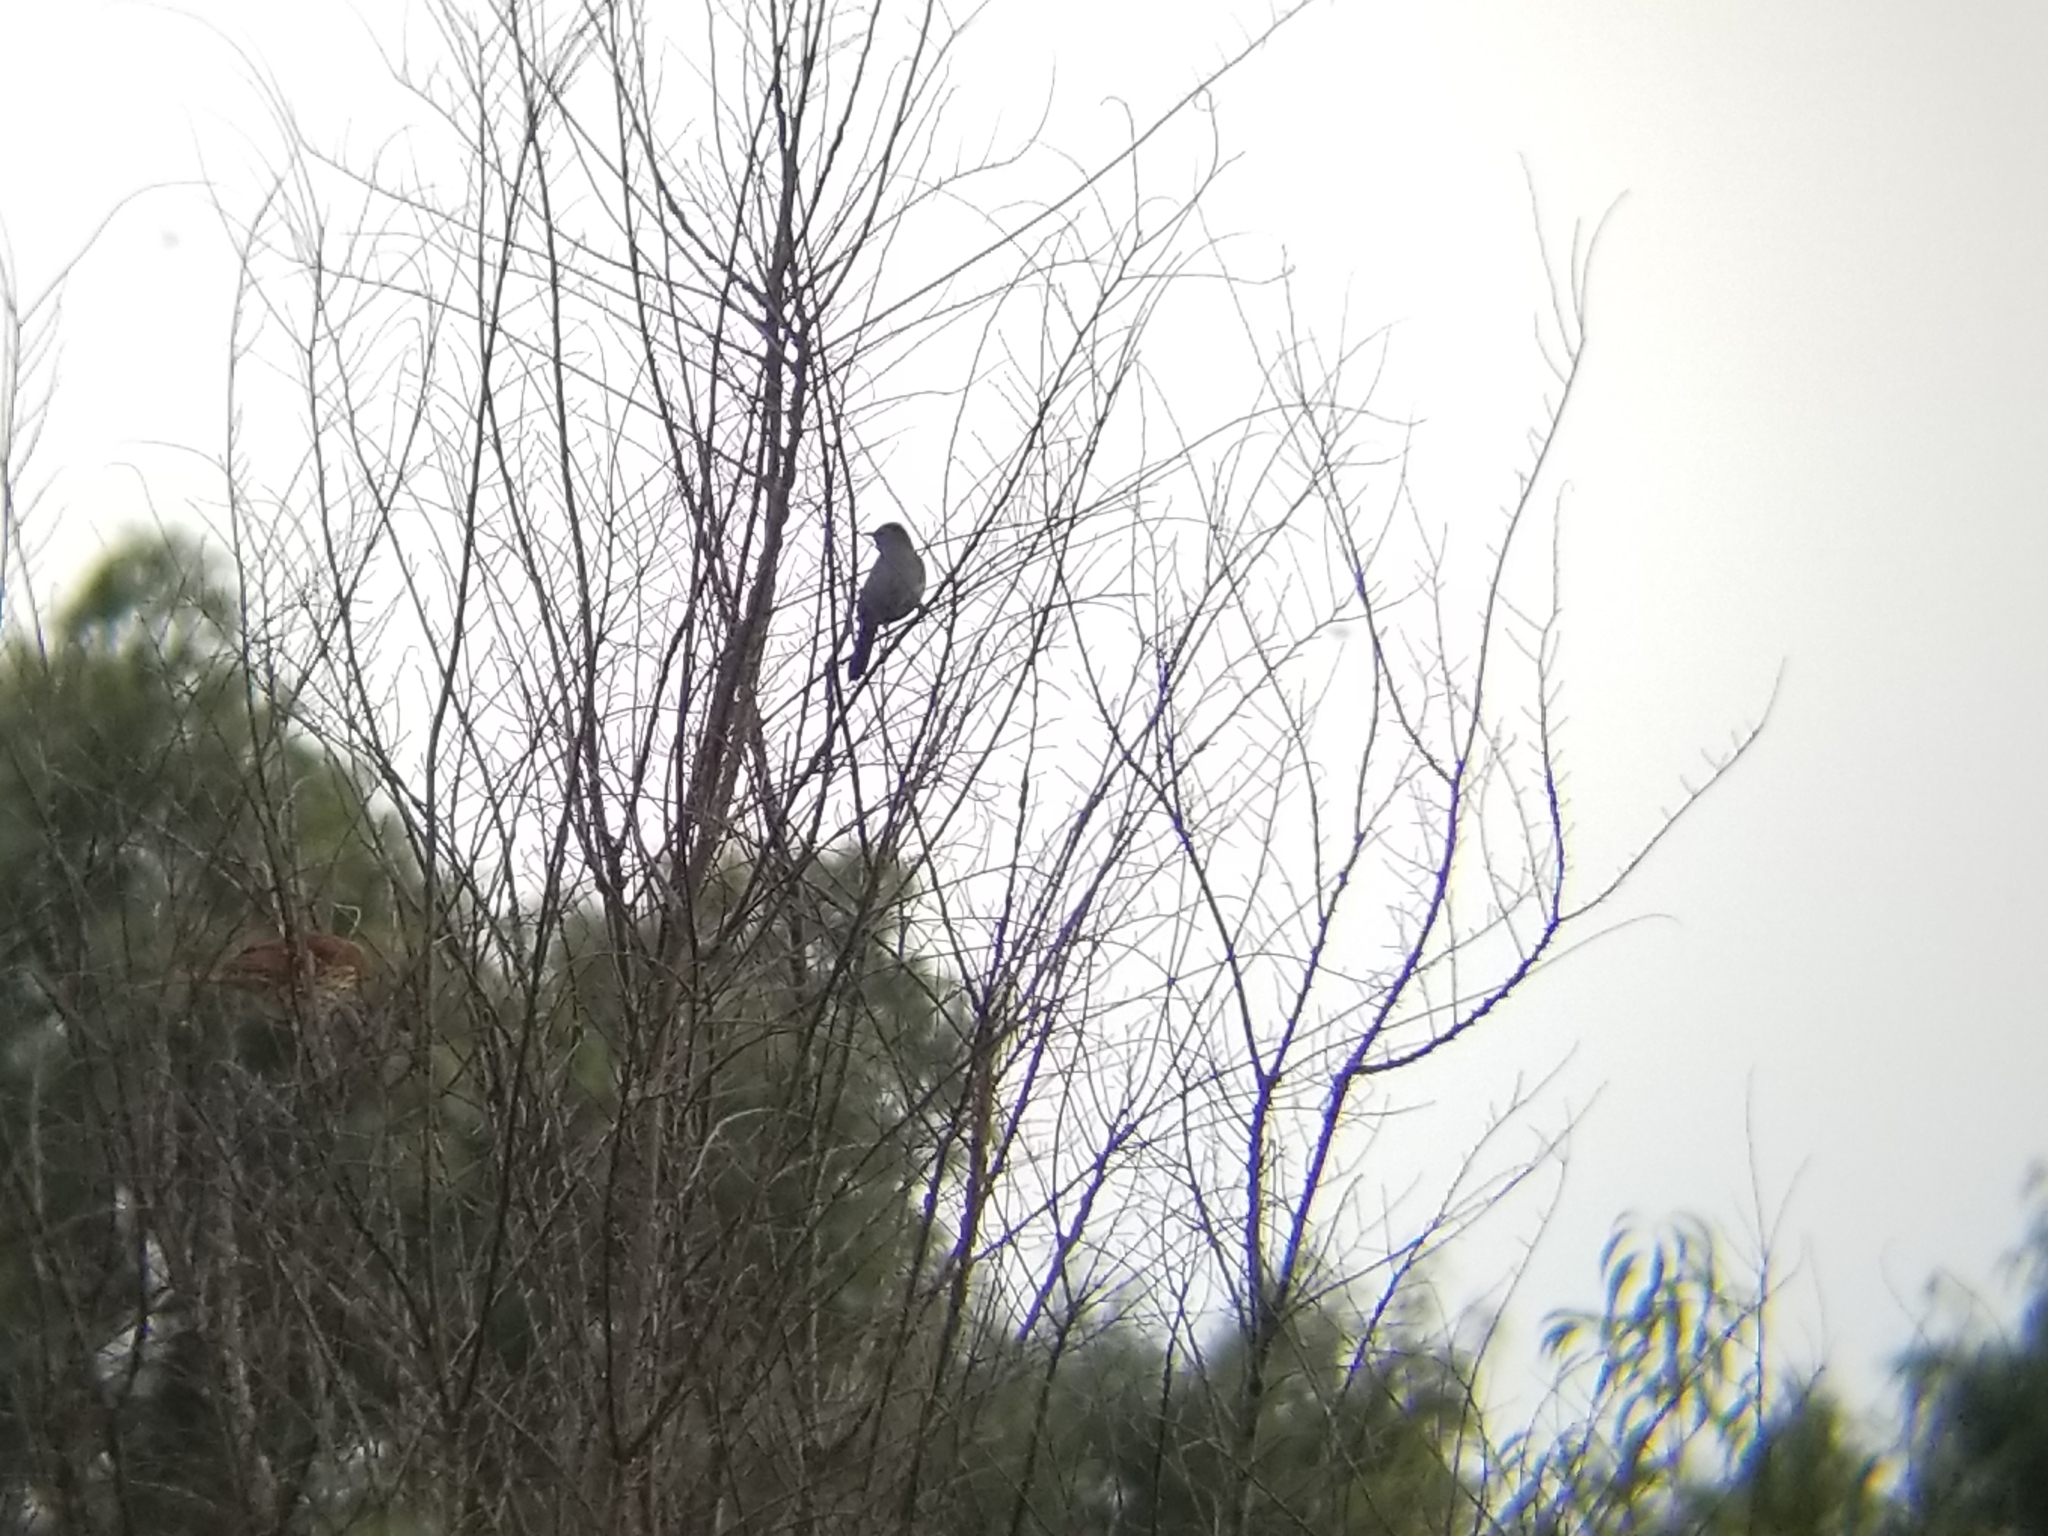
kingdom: Animalia
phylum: Chordata
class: Aves
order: Passeriformes
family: Mimidae
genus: Dumetella
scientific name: Dumetella carolinensis
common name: Gray catbird
